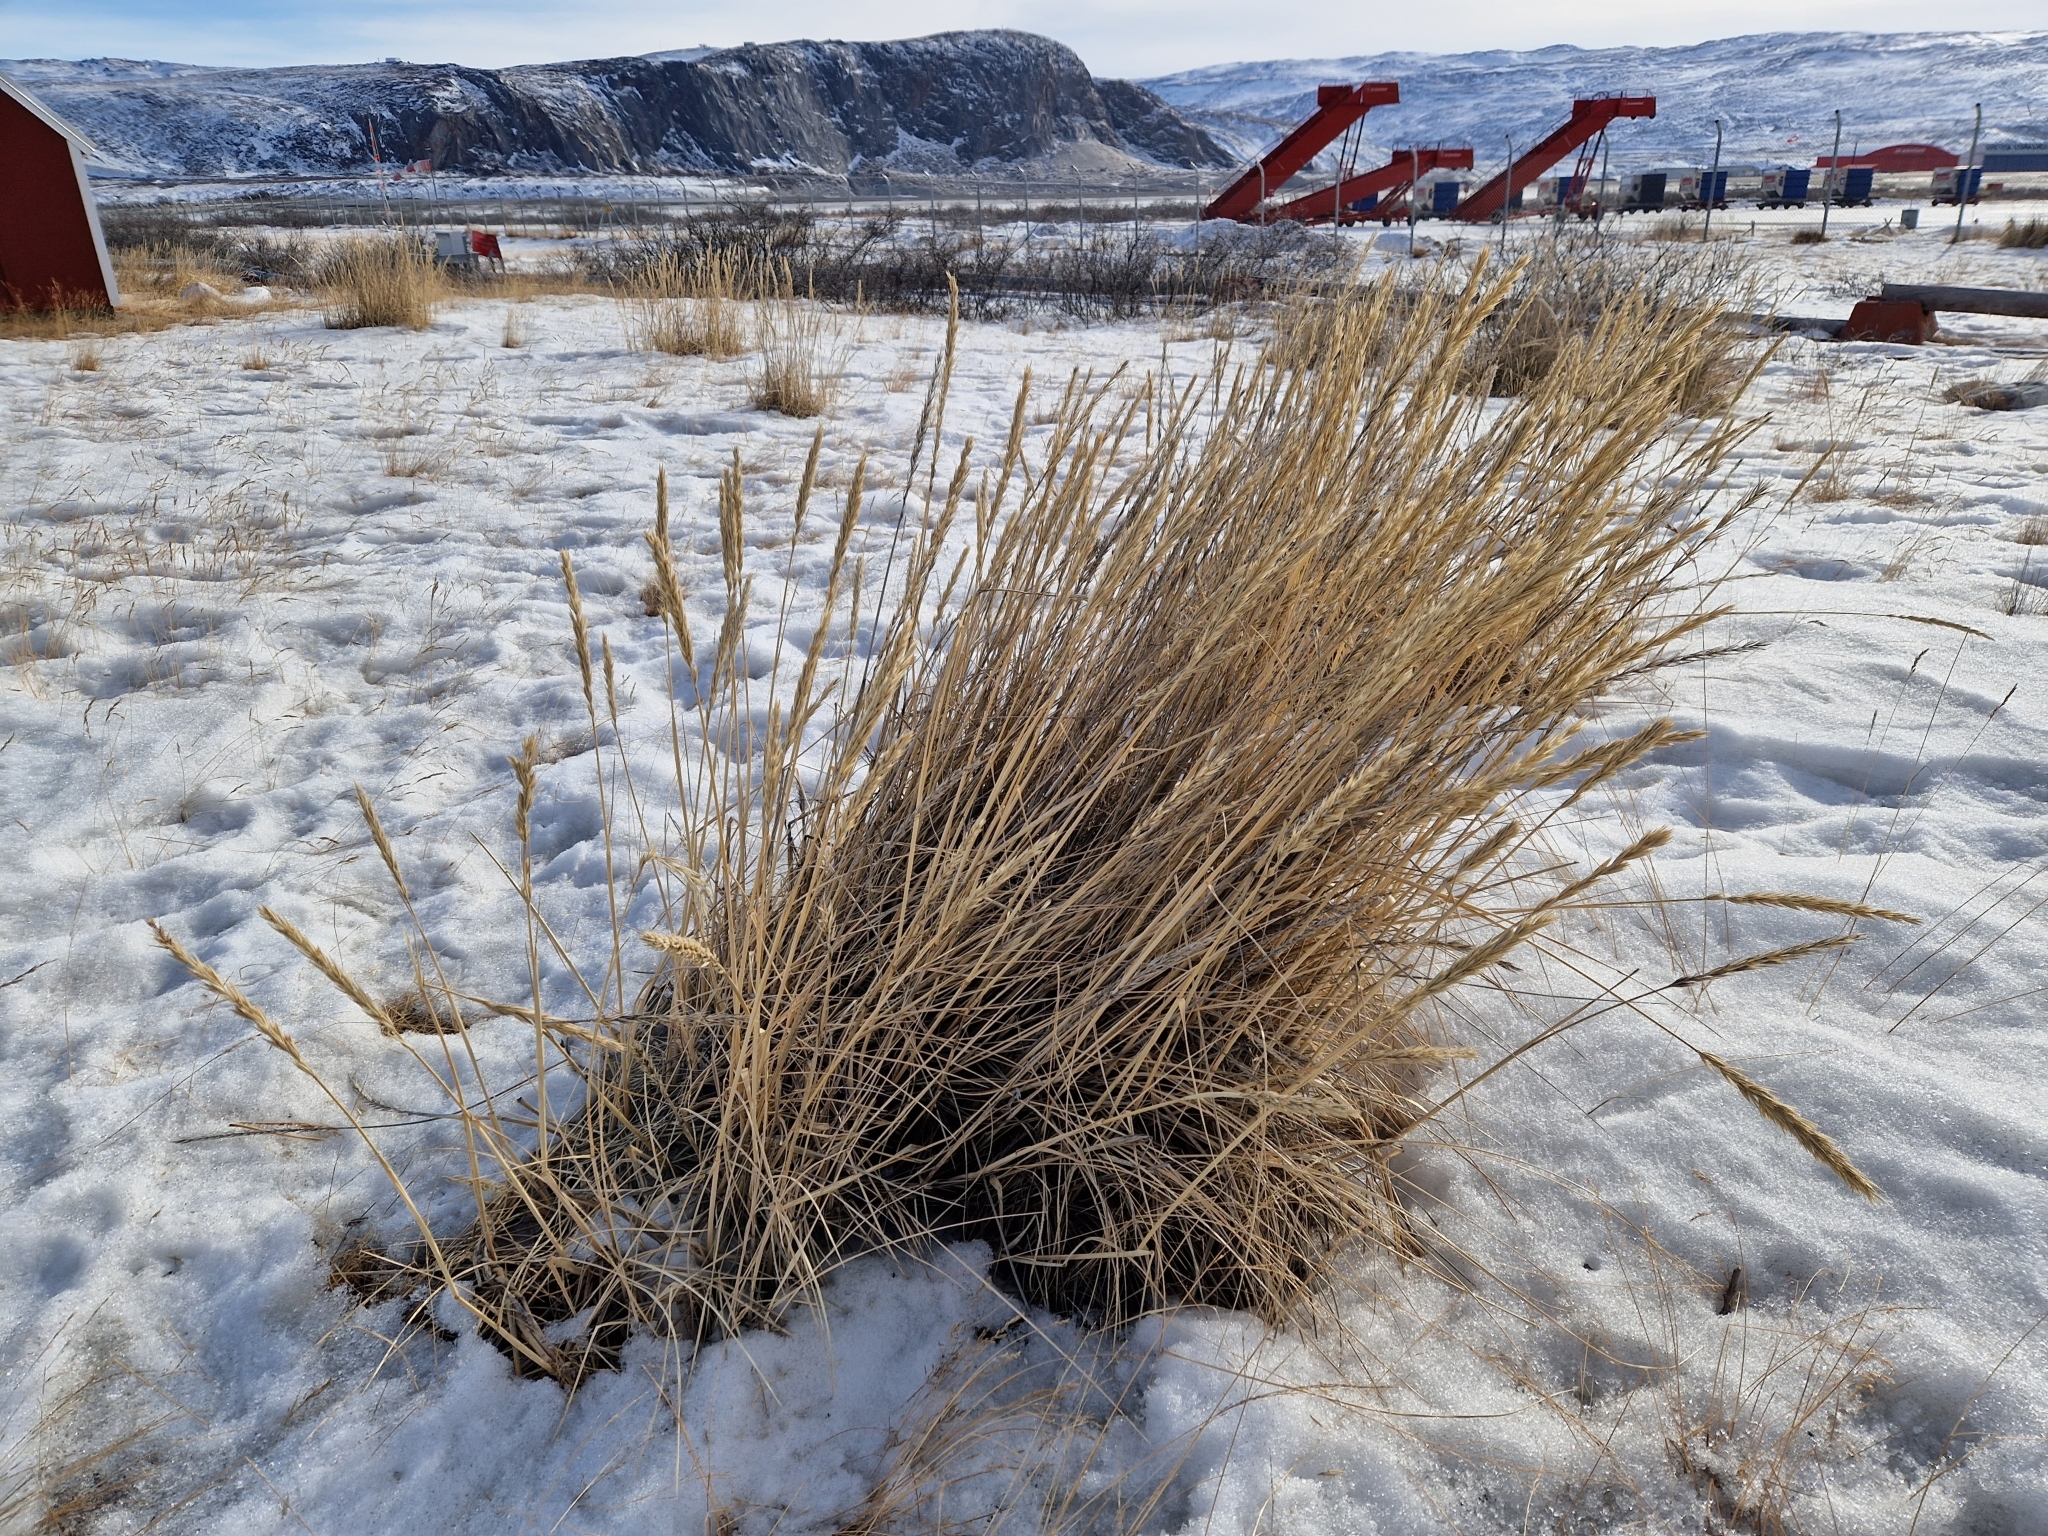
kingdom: Plantae
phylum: Tracheophyta
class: Liliopsida
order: Poales
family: Poaceae
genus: Leymus
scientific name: Leymus mollis
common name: American dune grass
